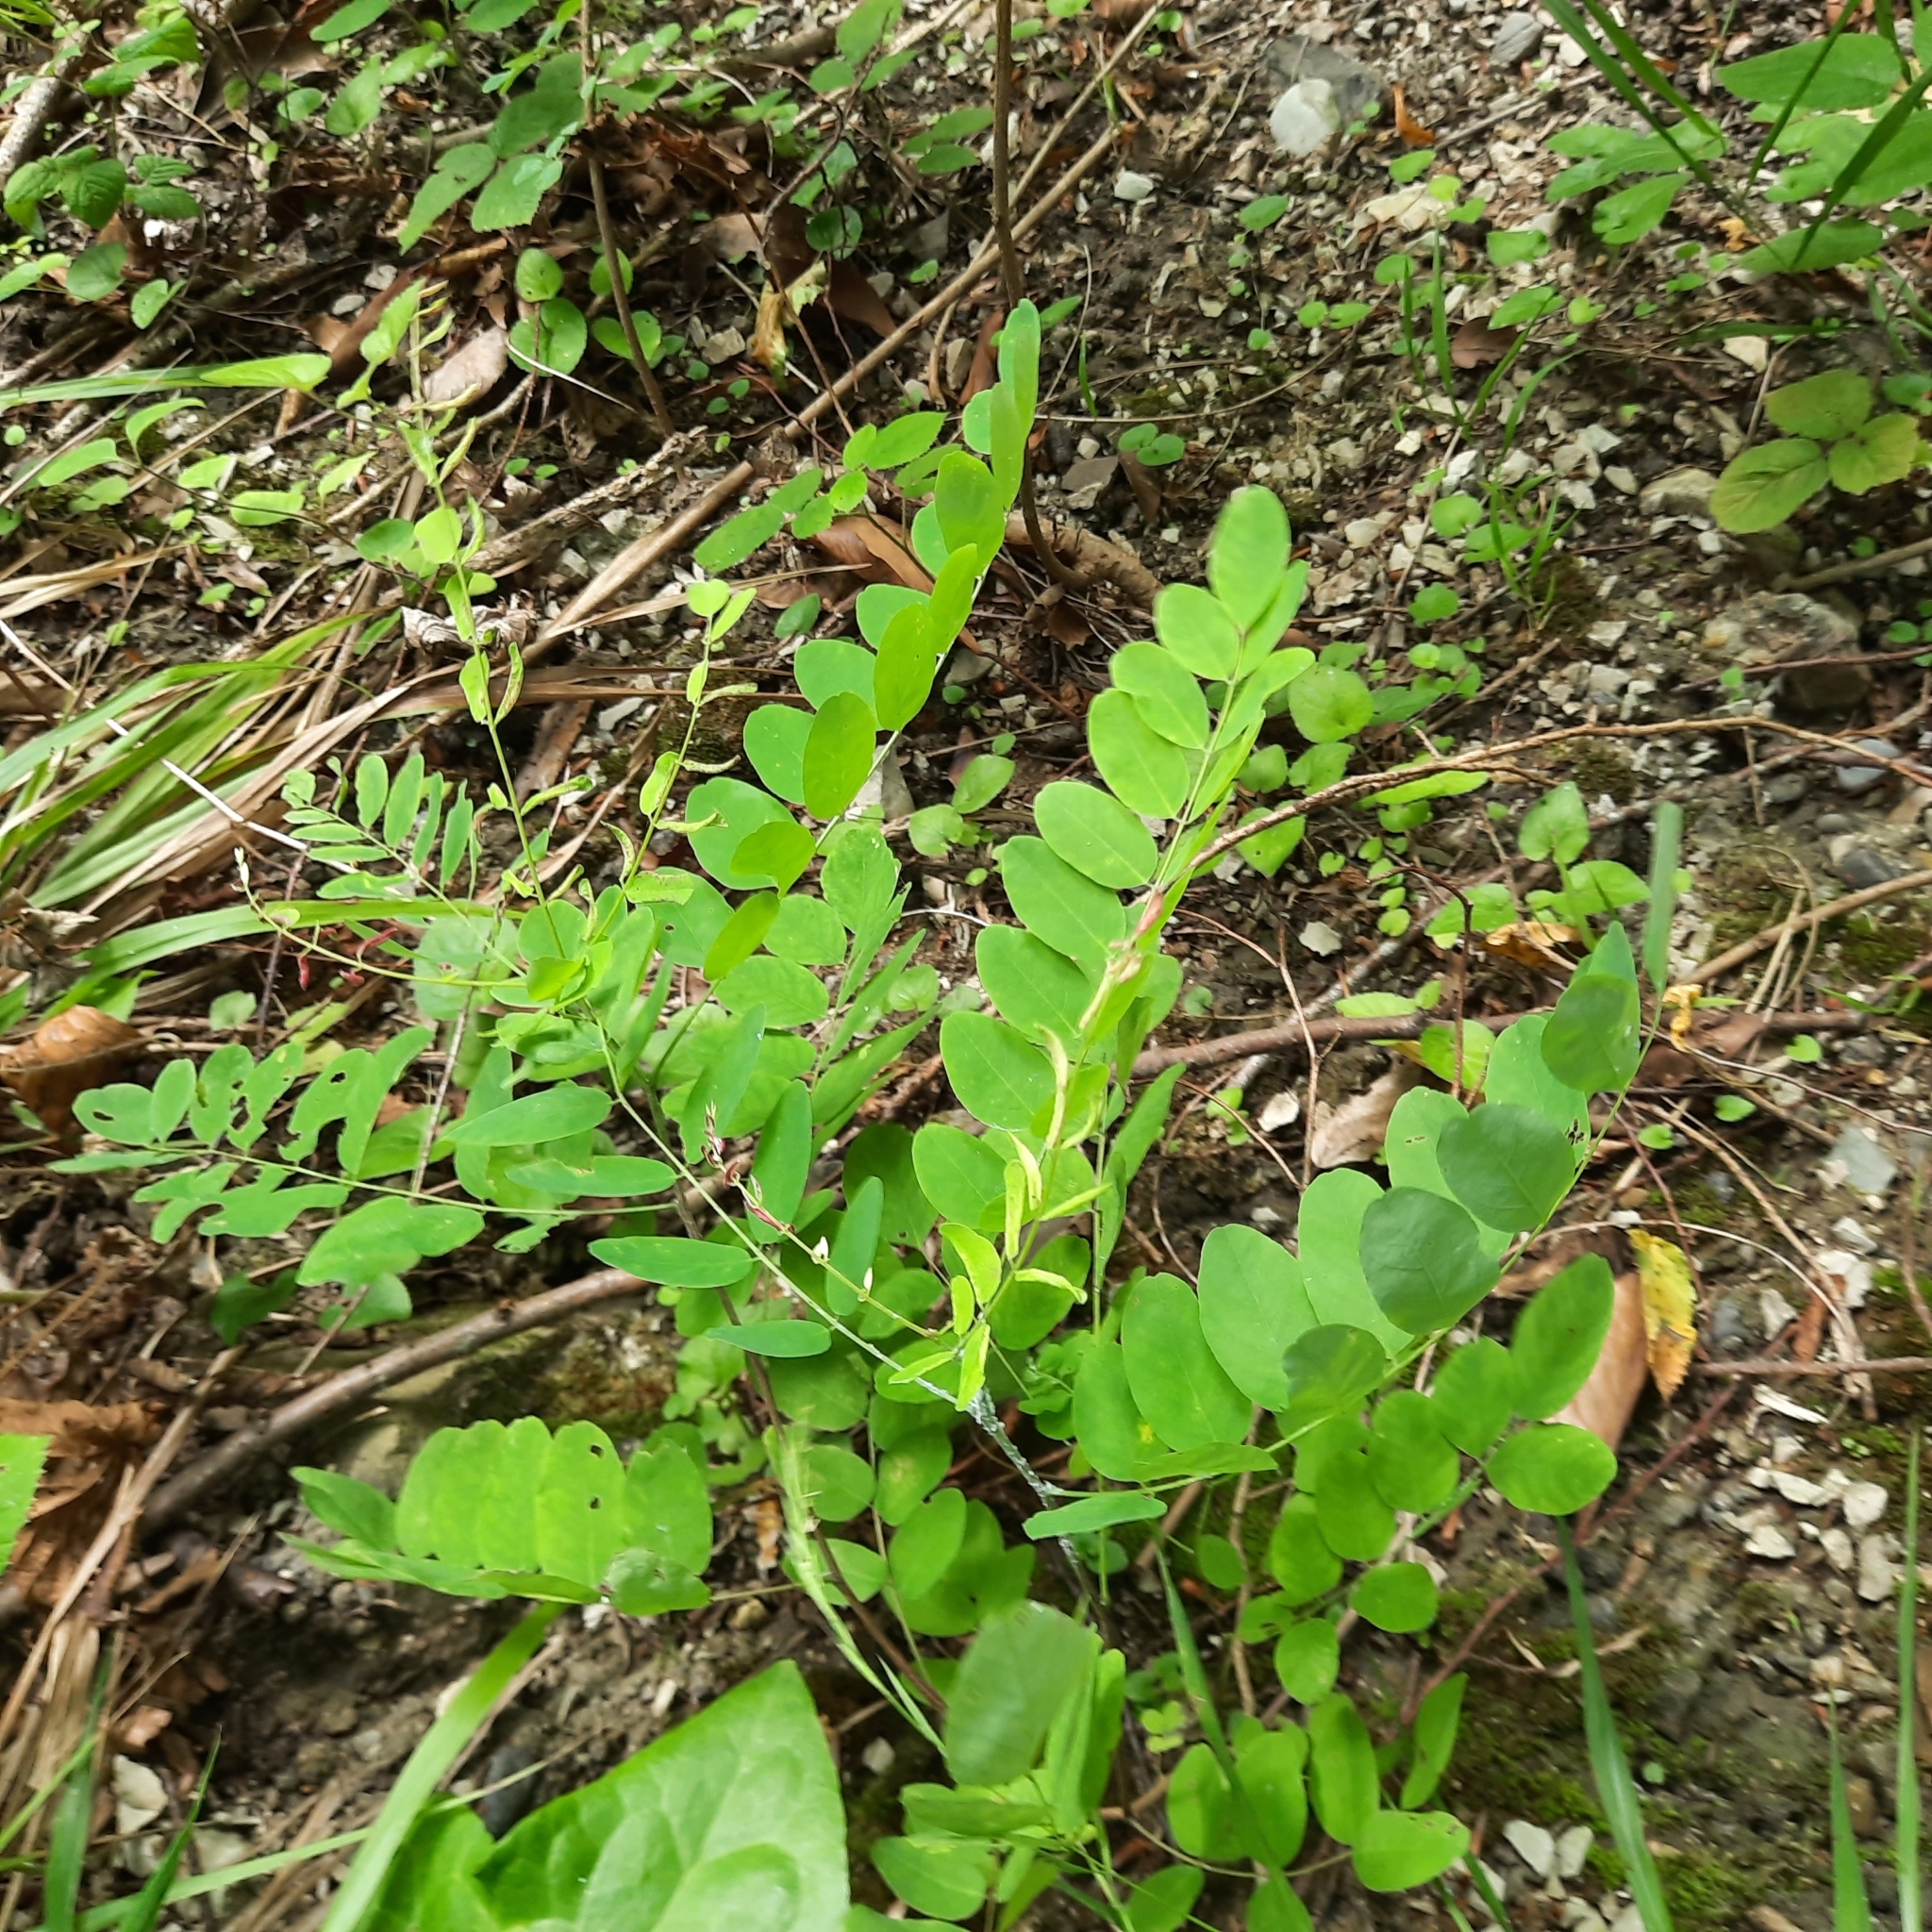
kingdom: Plantae
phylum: Tracheophyta
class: Magnoliopsida
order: Fabales
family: Fabaceae
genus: Robinia
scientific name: Robinia pseudoacacia
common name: Black locust
